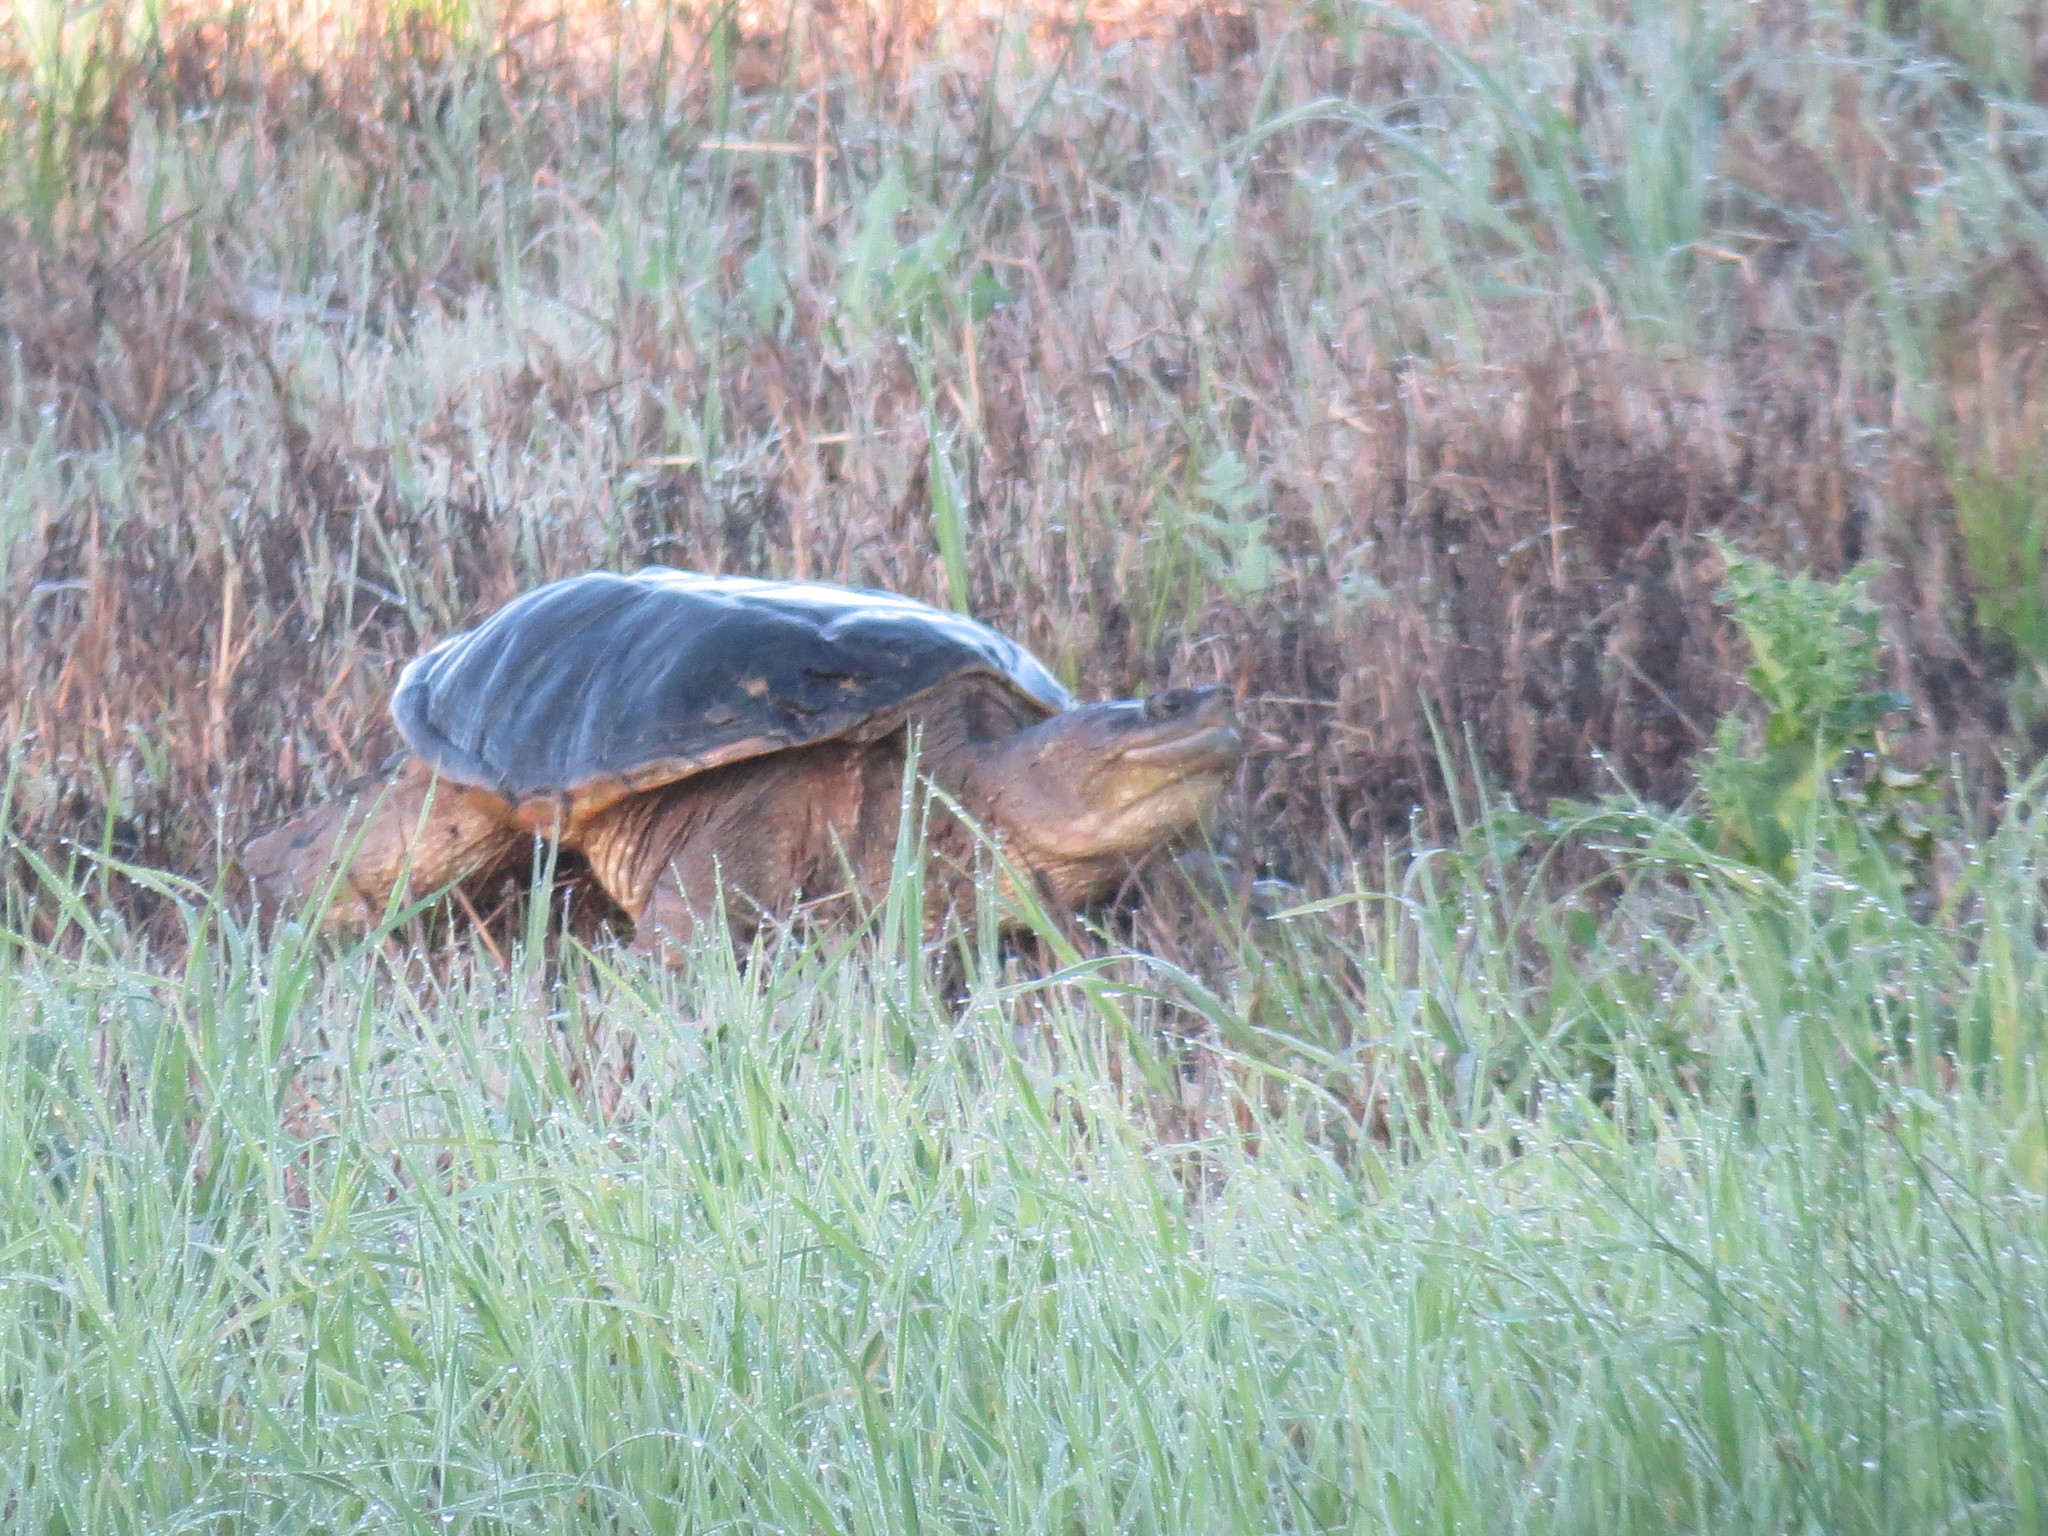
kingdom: Animalia
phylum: Chordata
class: Testudines
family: Chelydridae
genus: Chelydra
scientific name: Chelydra serpentina
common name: Common snapping turtle
